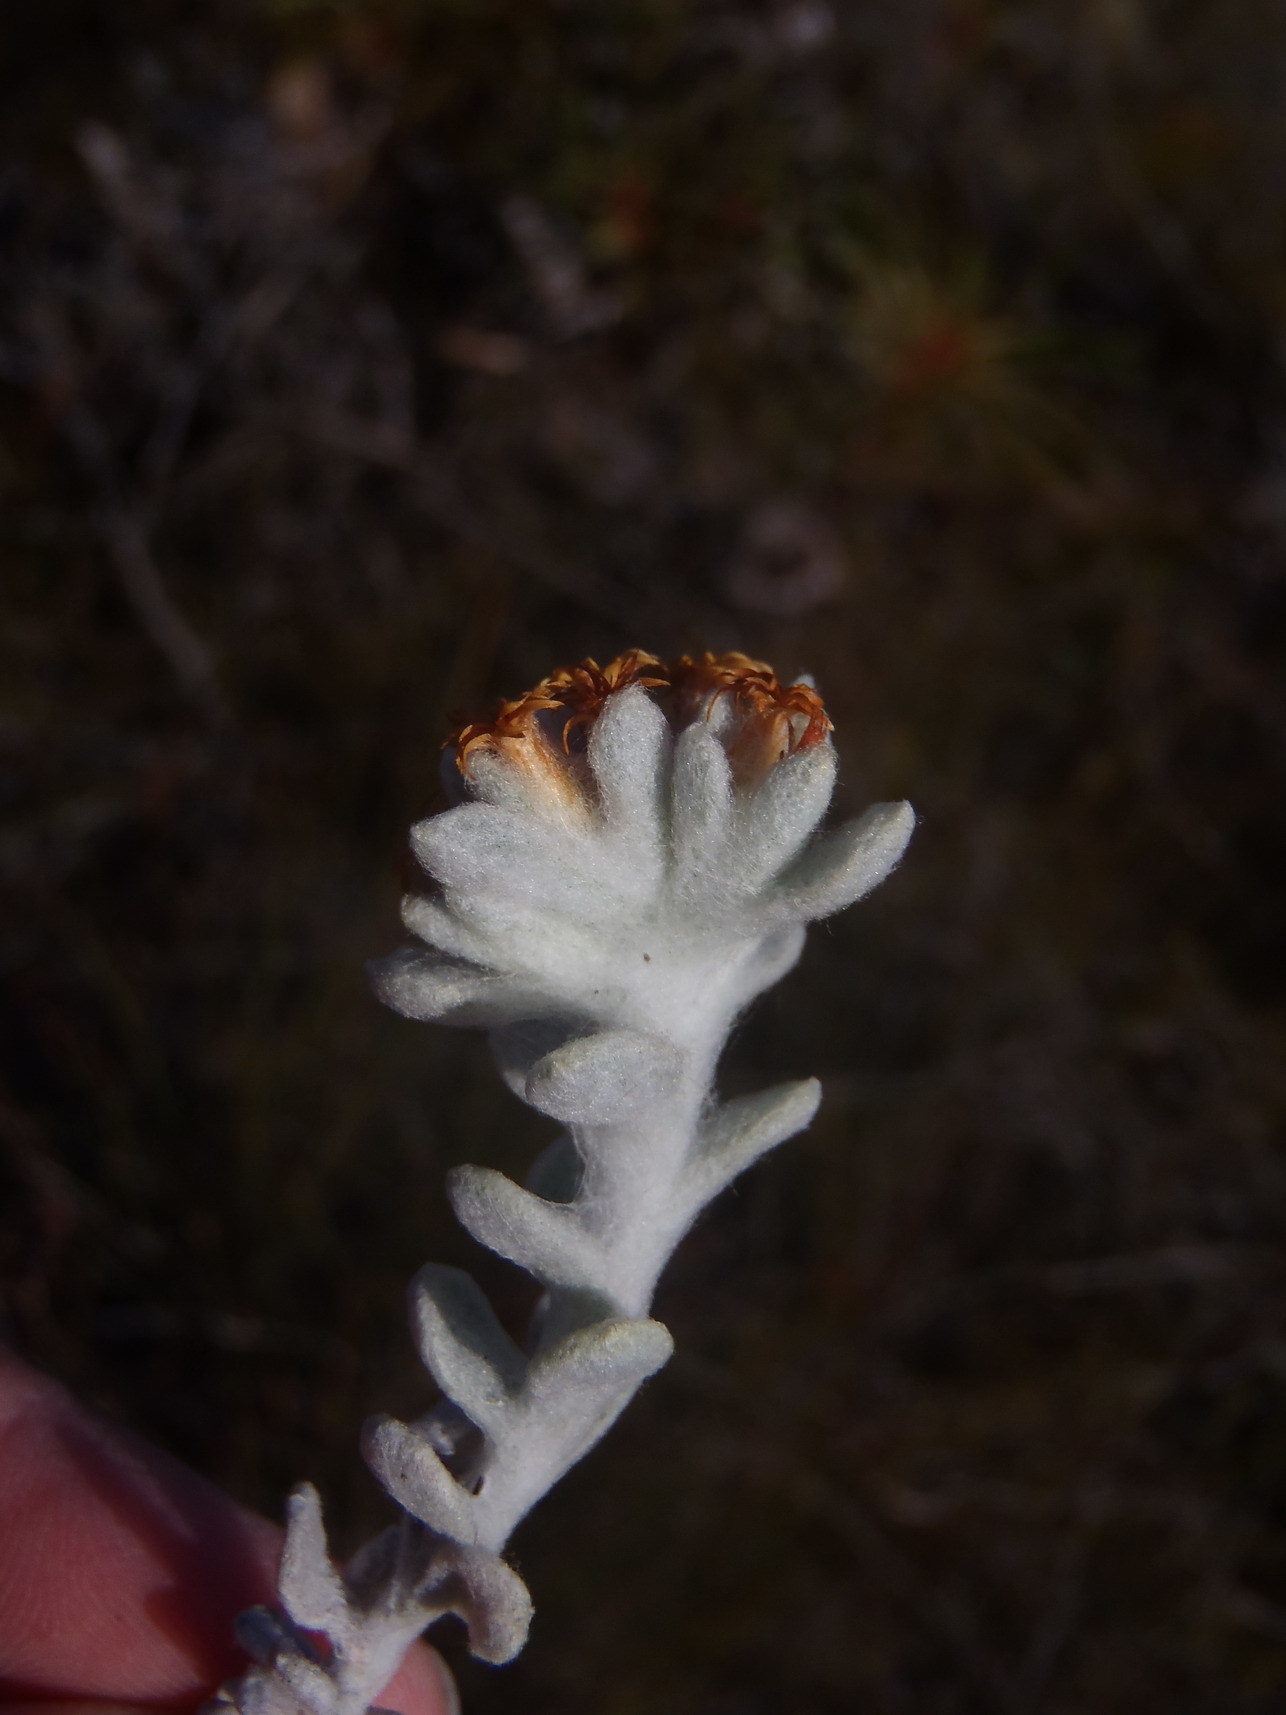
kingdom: Plantae
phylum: Tracheophyta
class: Magnoliopsida
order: Asterales
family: Asteraceae
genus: Helichrysum
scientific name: Helichrysum tinctum
